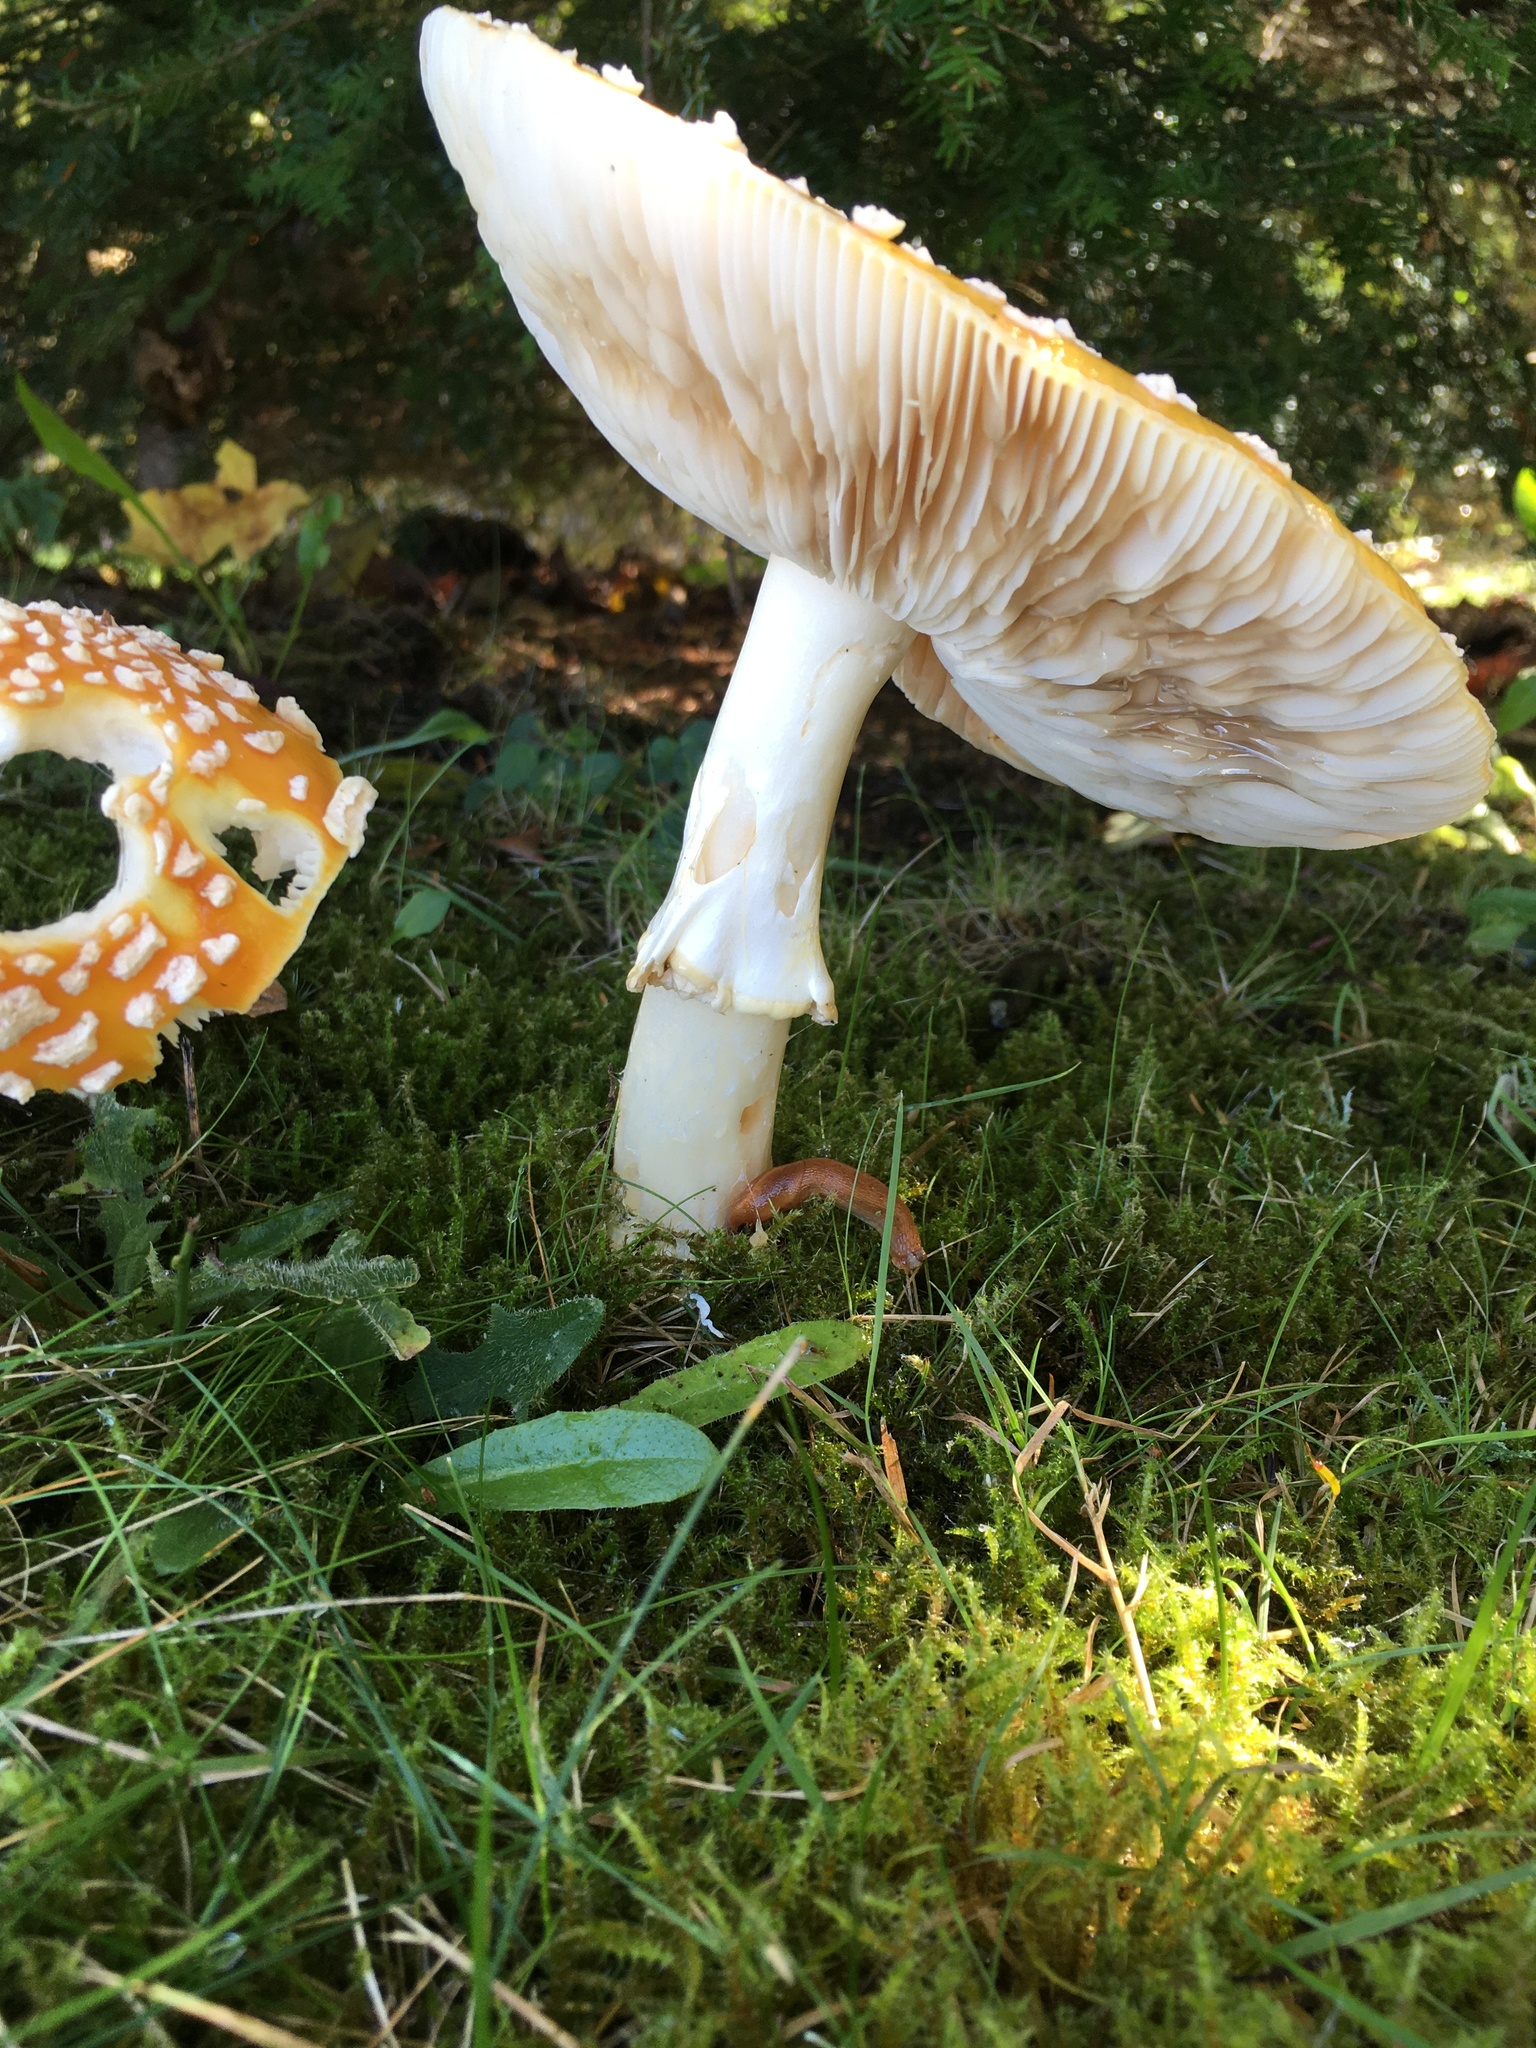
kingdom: Fungi
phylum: Basidiomycota
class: Agaricomycetes
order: Agaricales
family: Amanitaceae
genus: Amanita
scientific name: Amanita muscaria
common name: Fly agaric
